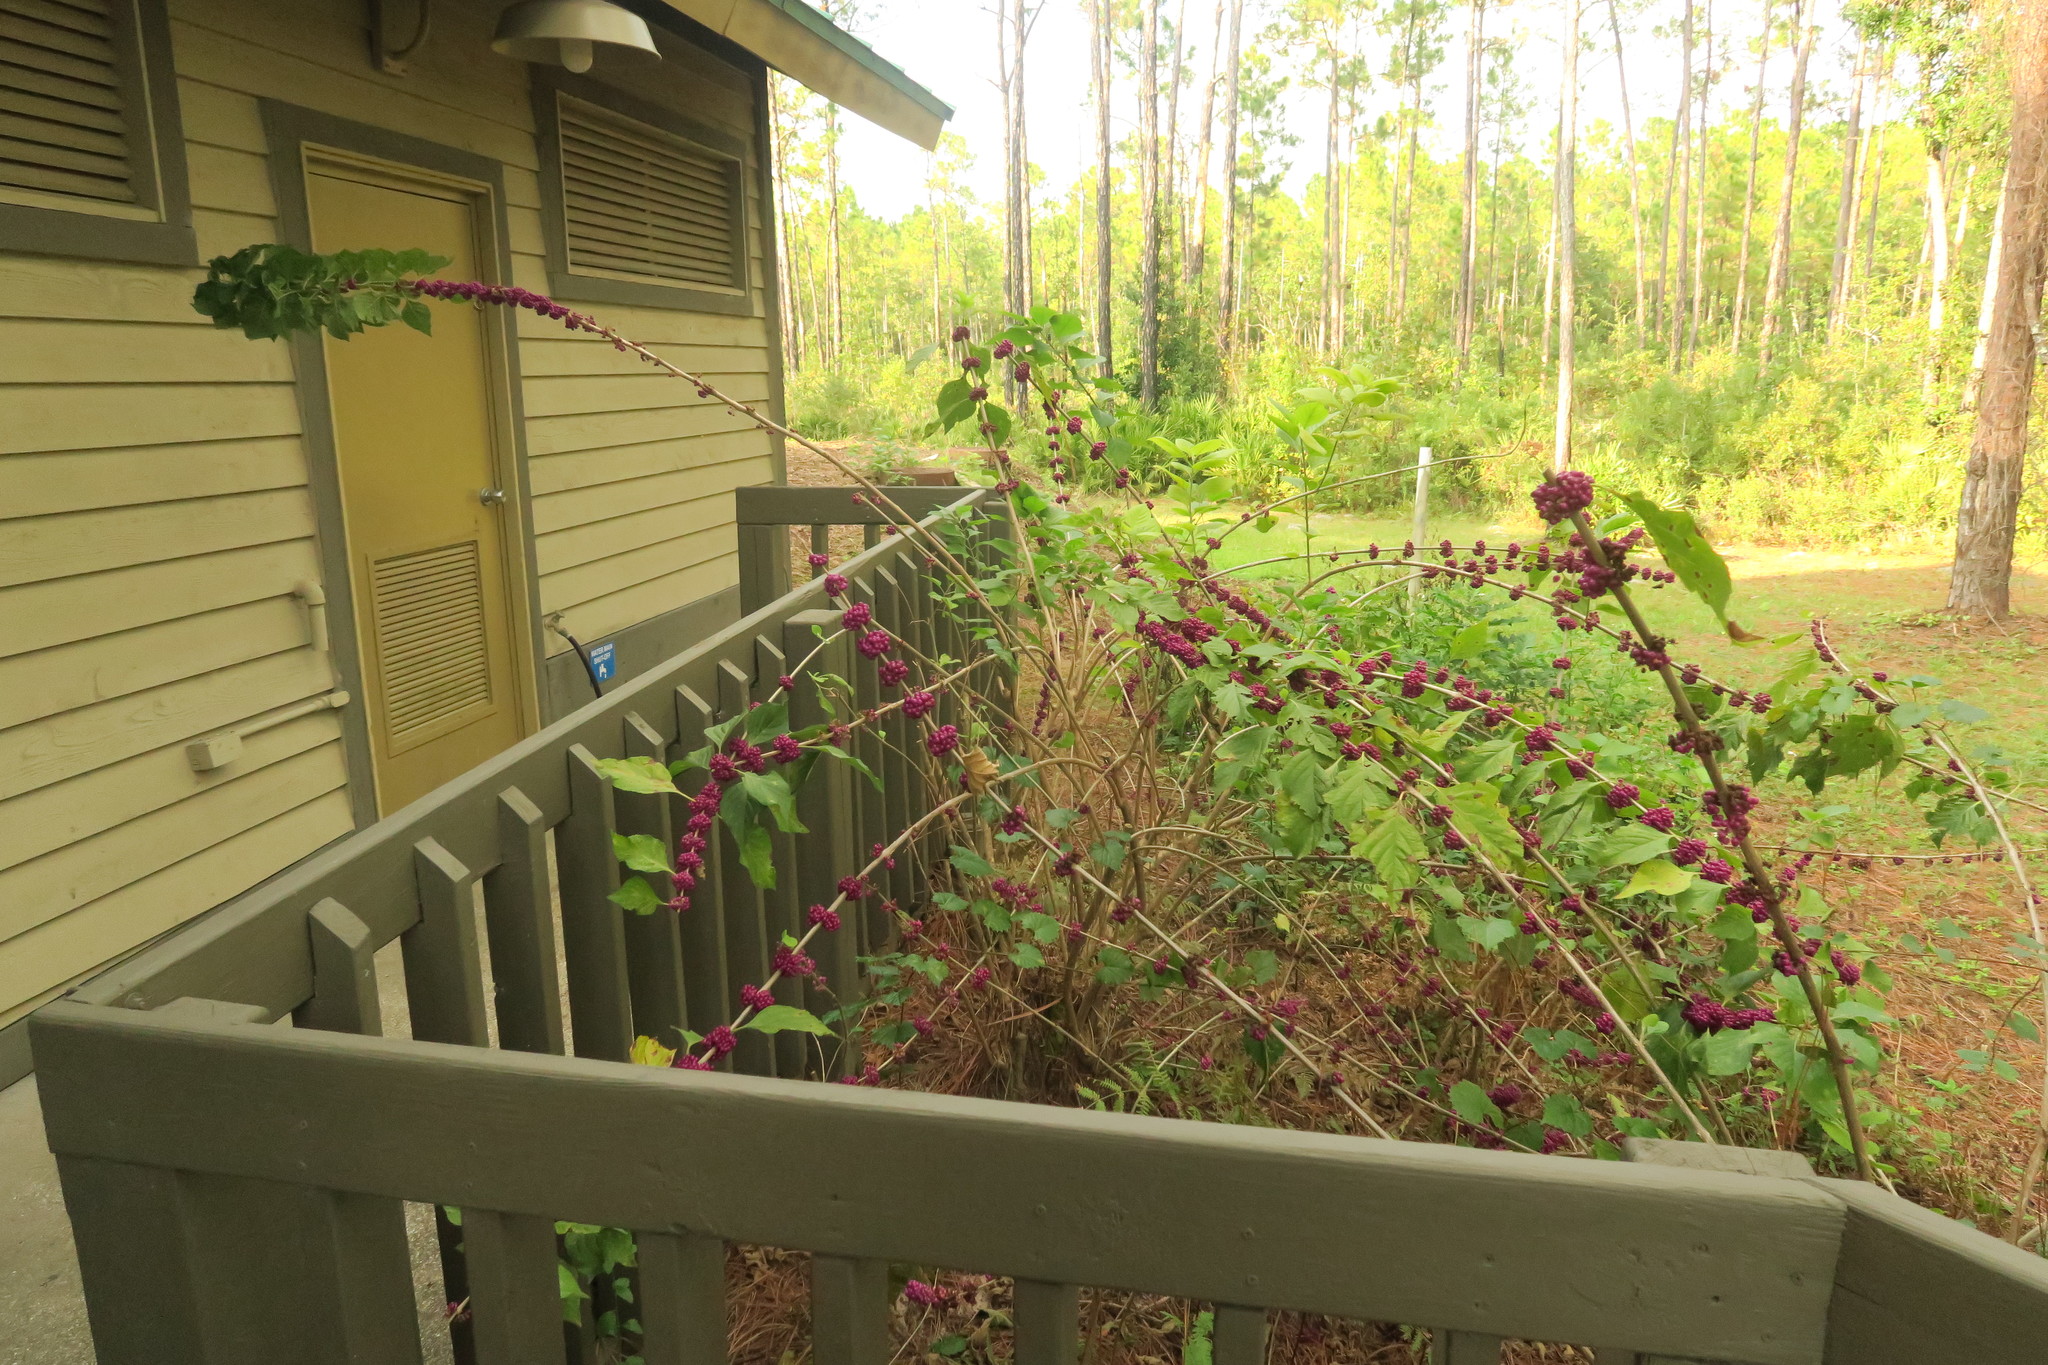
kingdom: Plantae
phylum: Tracheophyta
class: Magnoliopsida
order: Lamiales
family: Lamiaceae
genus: Callicarpa
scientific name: Callicarpa americana
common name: American beautyberry
